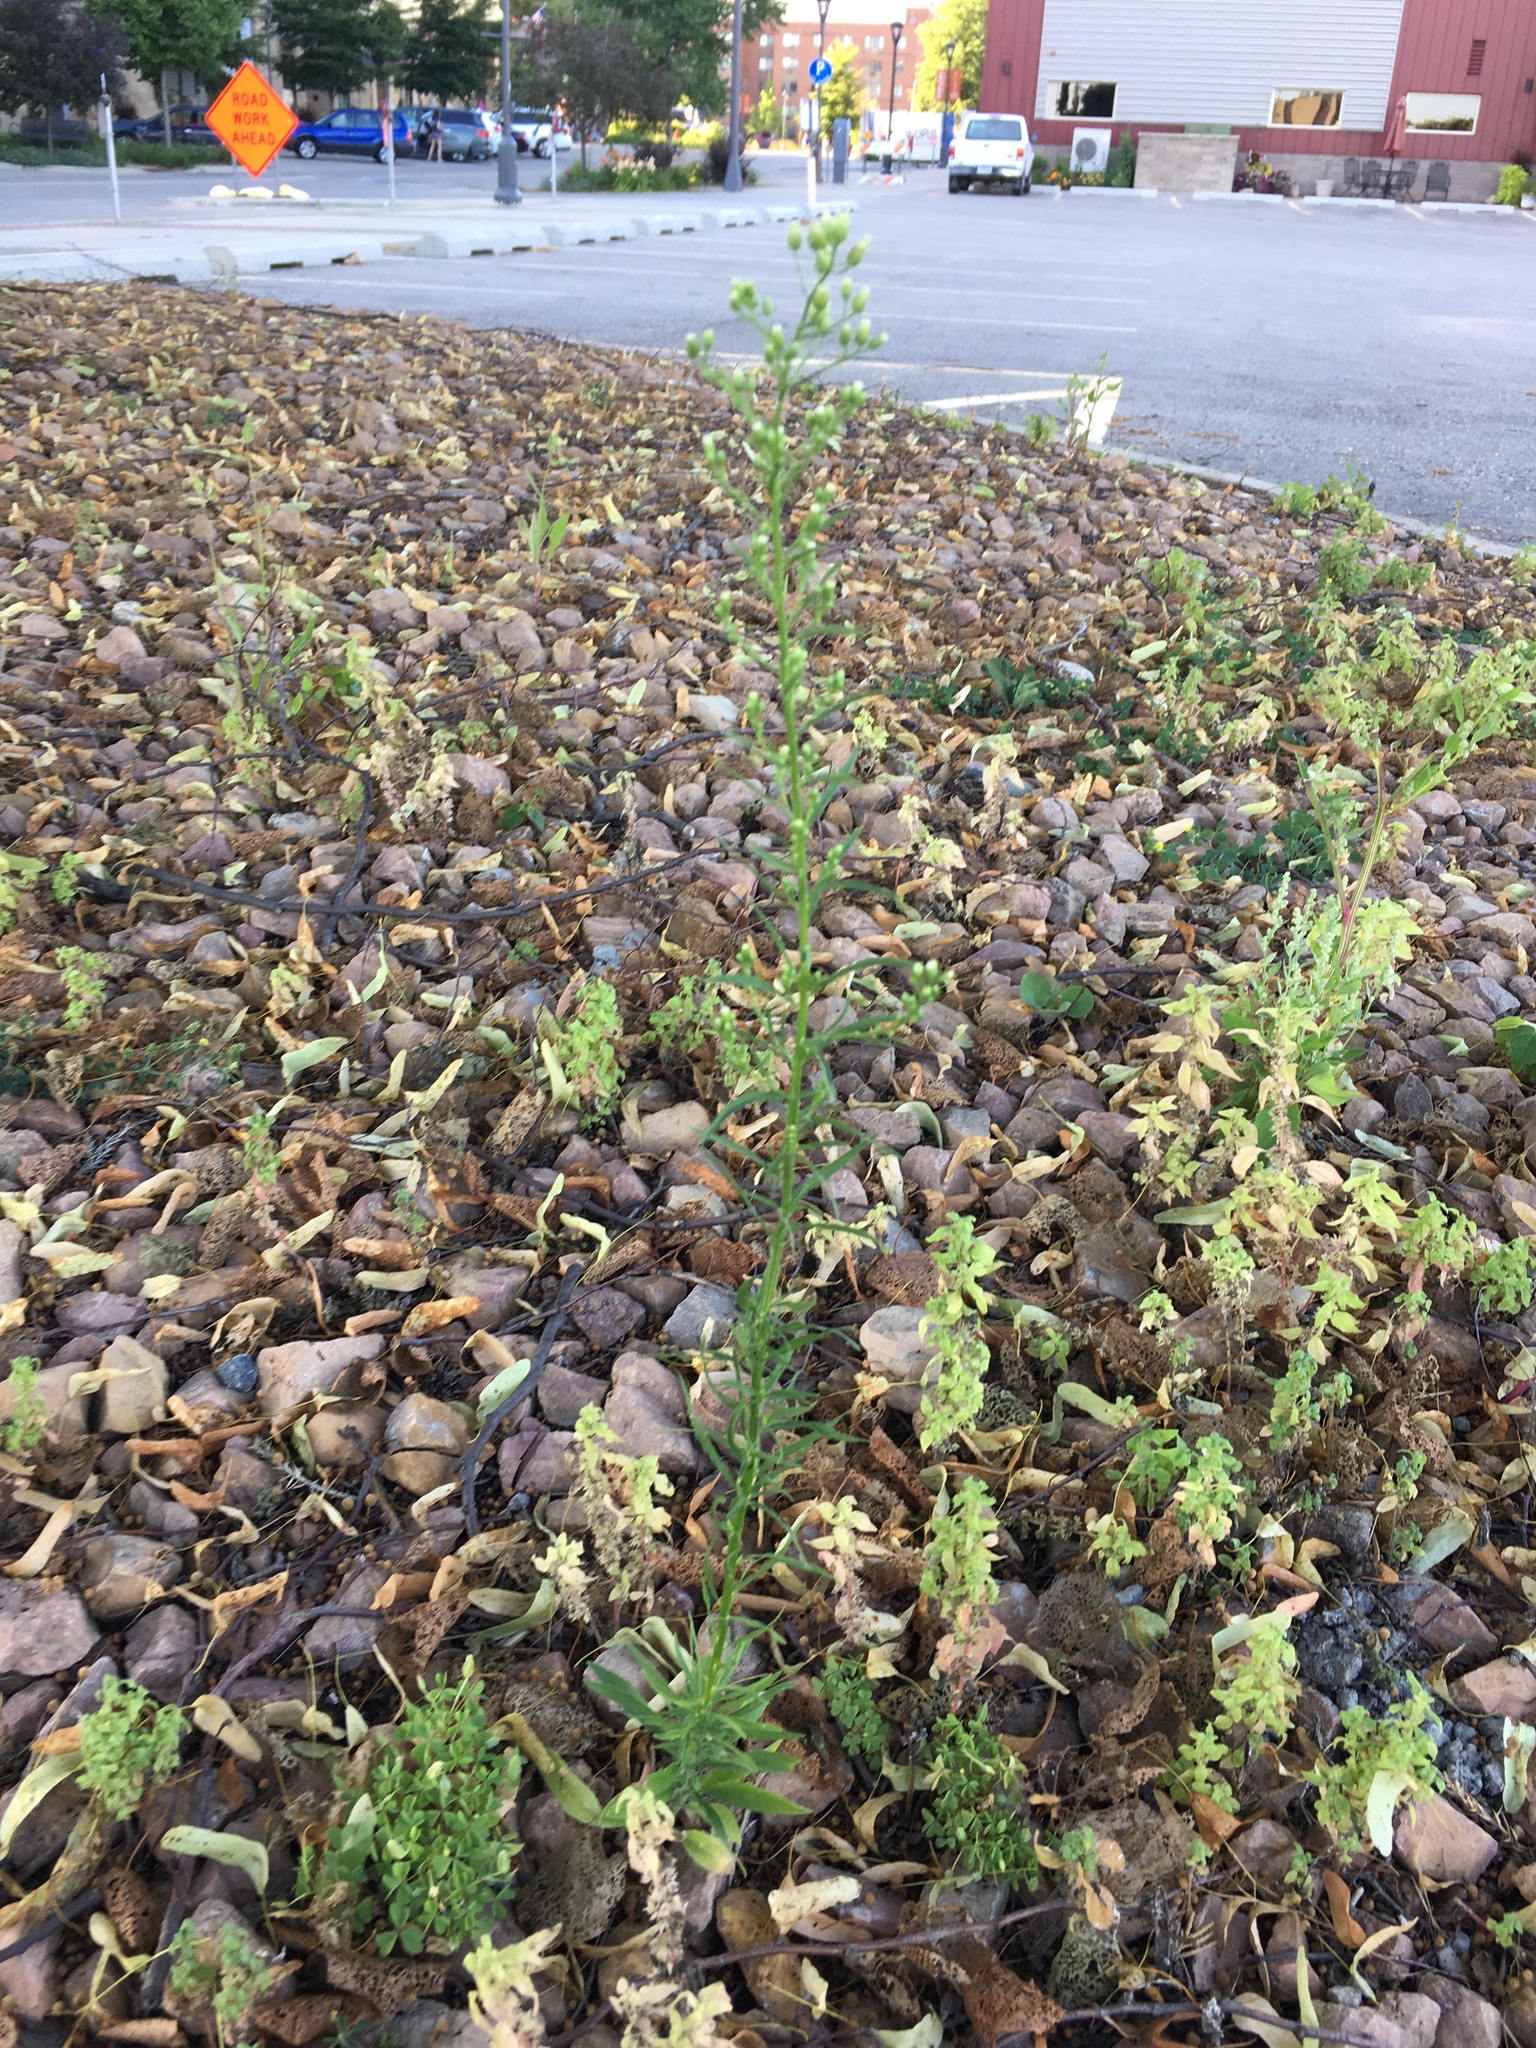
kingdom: Plantae
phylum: Tracheophyta
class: Magnoliopsida
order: Asterales
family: Asteraceae
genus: Erigeron
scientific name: Erigeron canadensis
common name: Canadian fleabane
